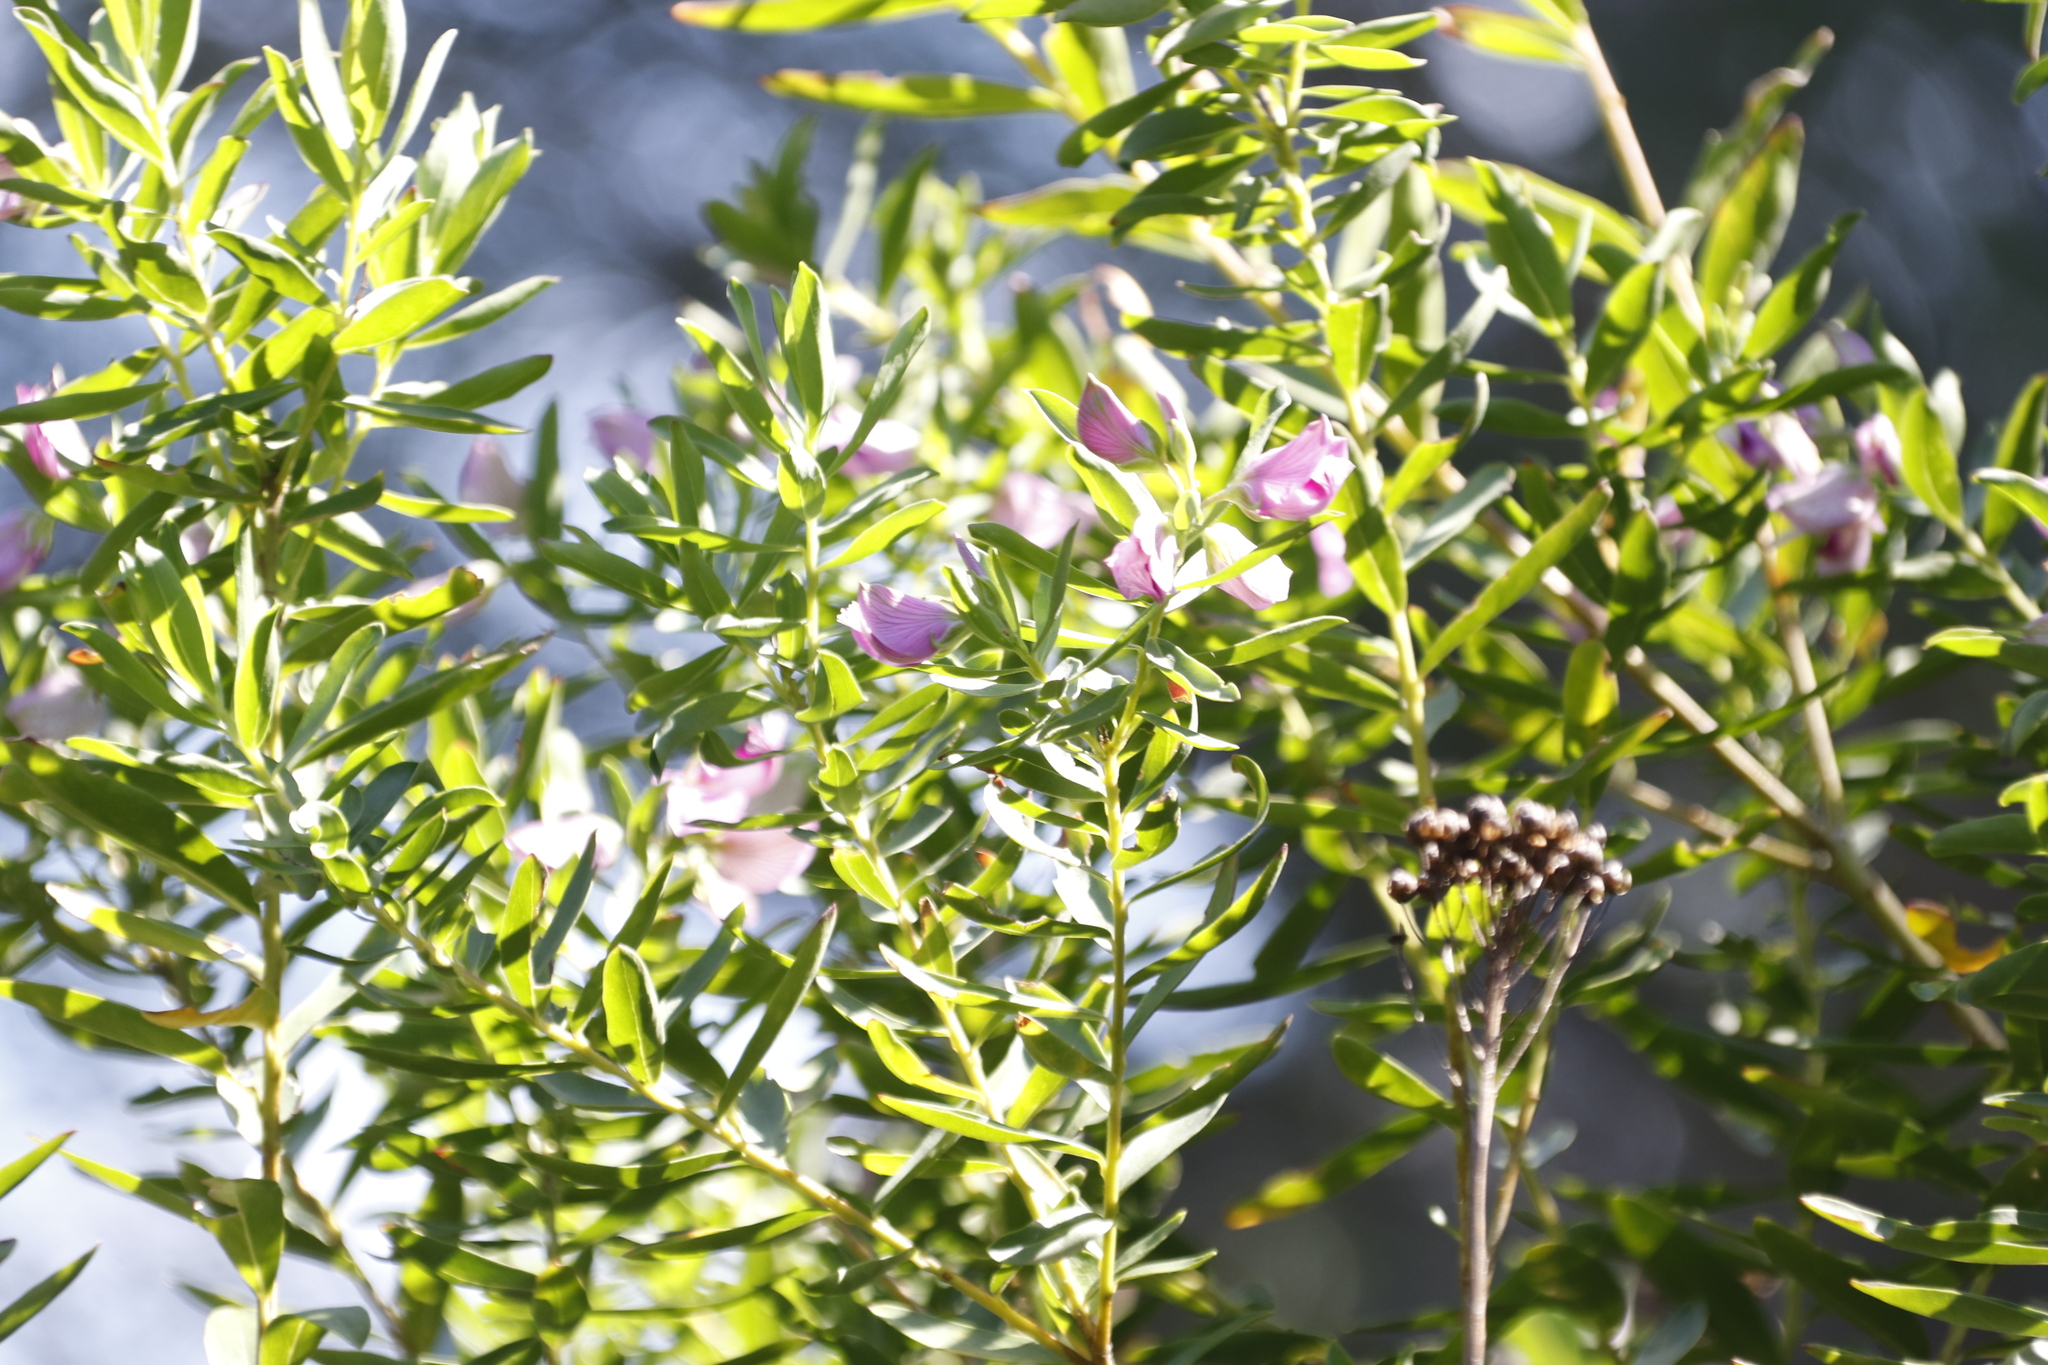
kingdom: Plantae
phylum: Tracheophyta
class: Magnoliopsida
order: Fabales
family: Polygalaceae
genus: Polygala
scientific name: Polygala myrtifolia
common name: Myrtle-leaf milkwort
